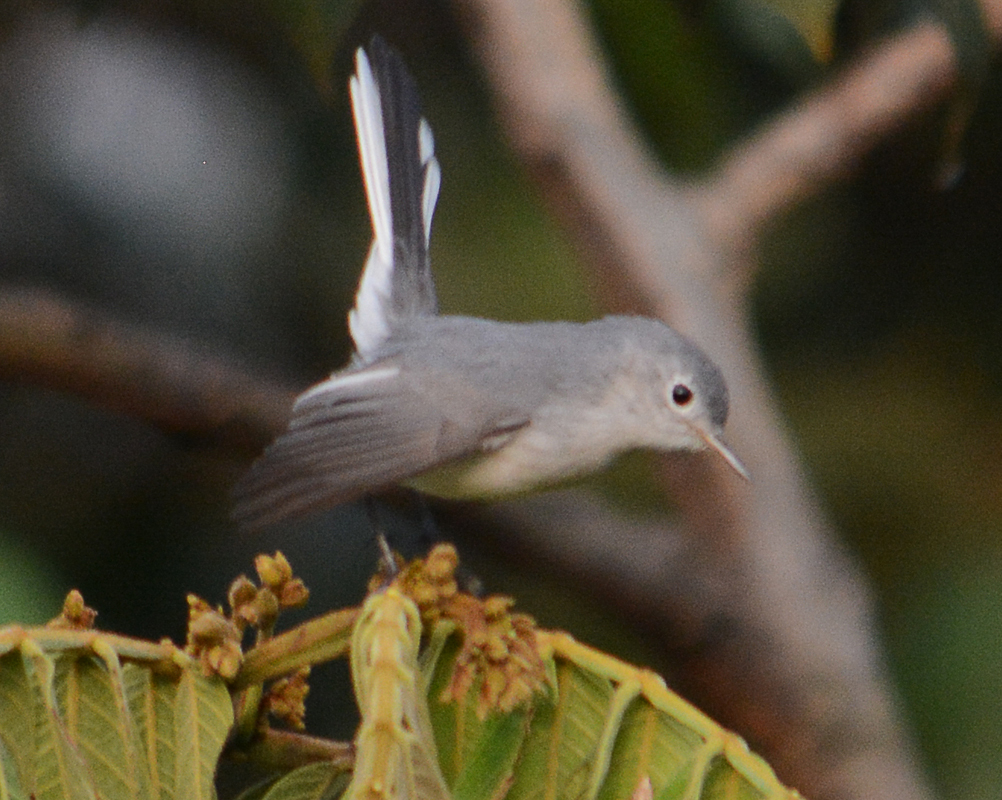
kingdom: Animalia
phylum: Chordata
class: Aves
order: Passeriformes
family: Polioptilidae
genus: Polioptila
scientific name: Polioptila caerulea
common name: Blue-gray gnatcatcher
